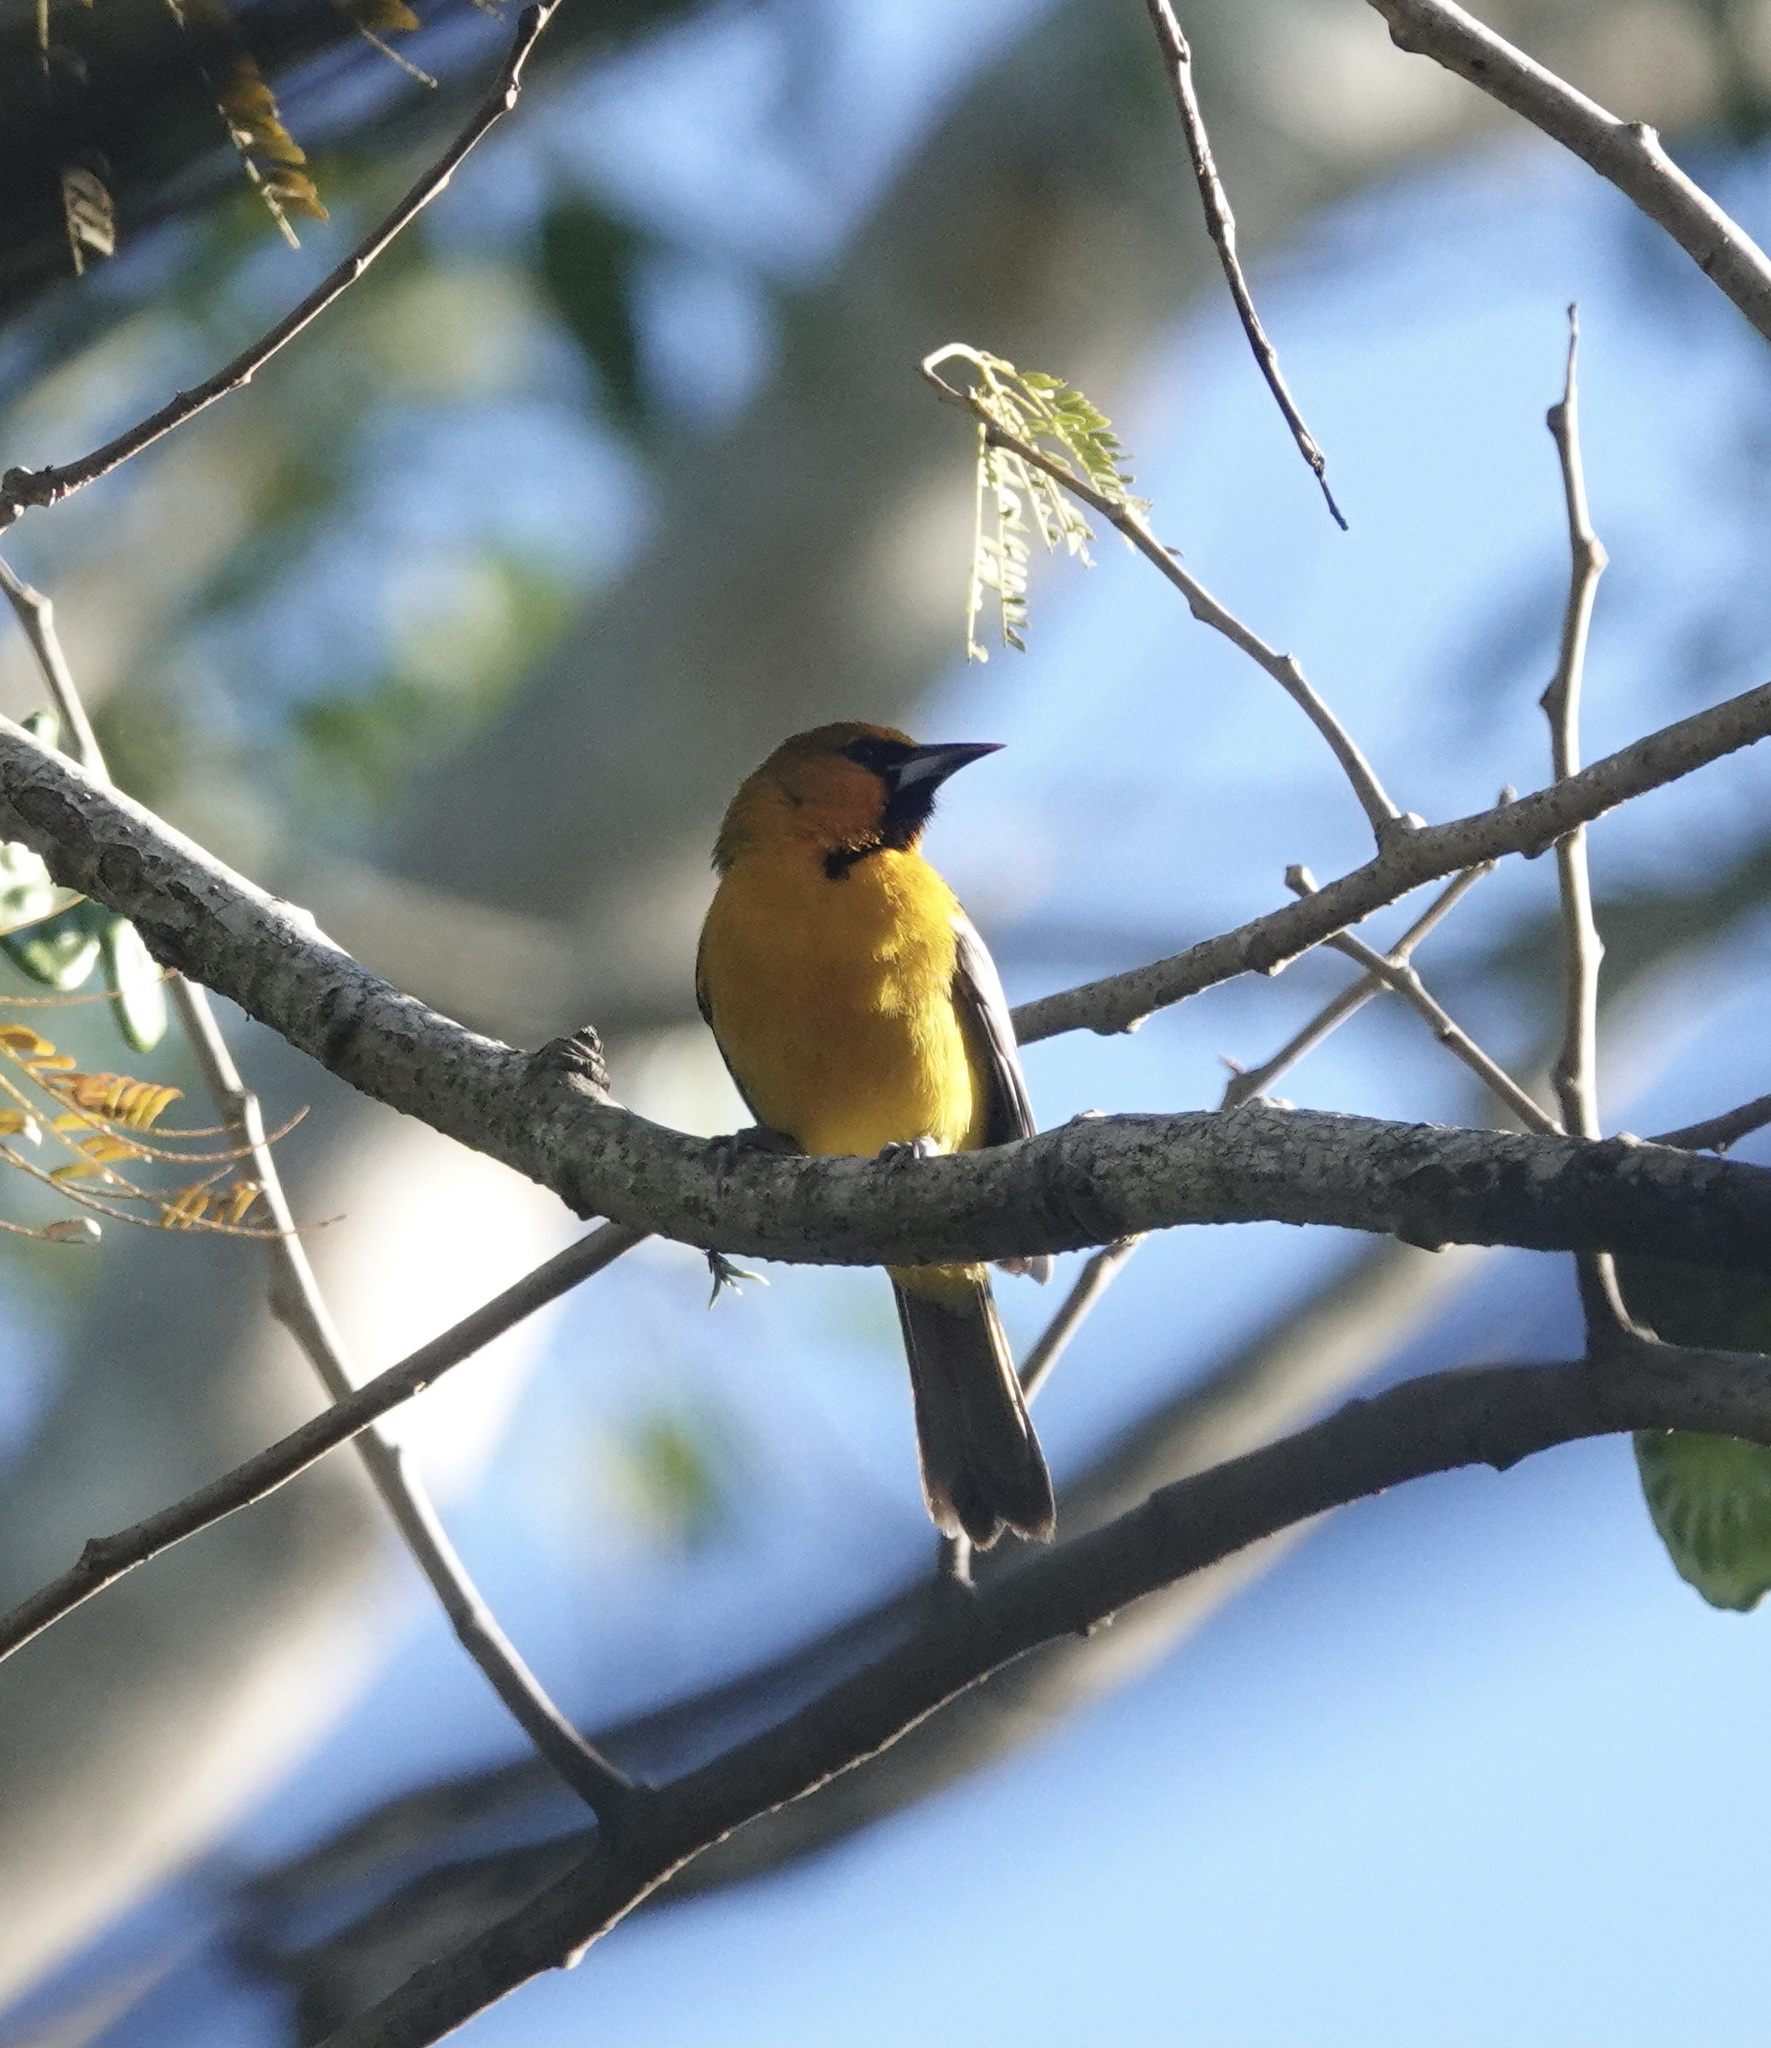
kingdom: Animalia
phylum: Chordata
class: Aves
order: Passeriformes
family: Icteridae
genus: Icterus
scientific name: Icterus pustulatus
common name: Streak-backed oriole
